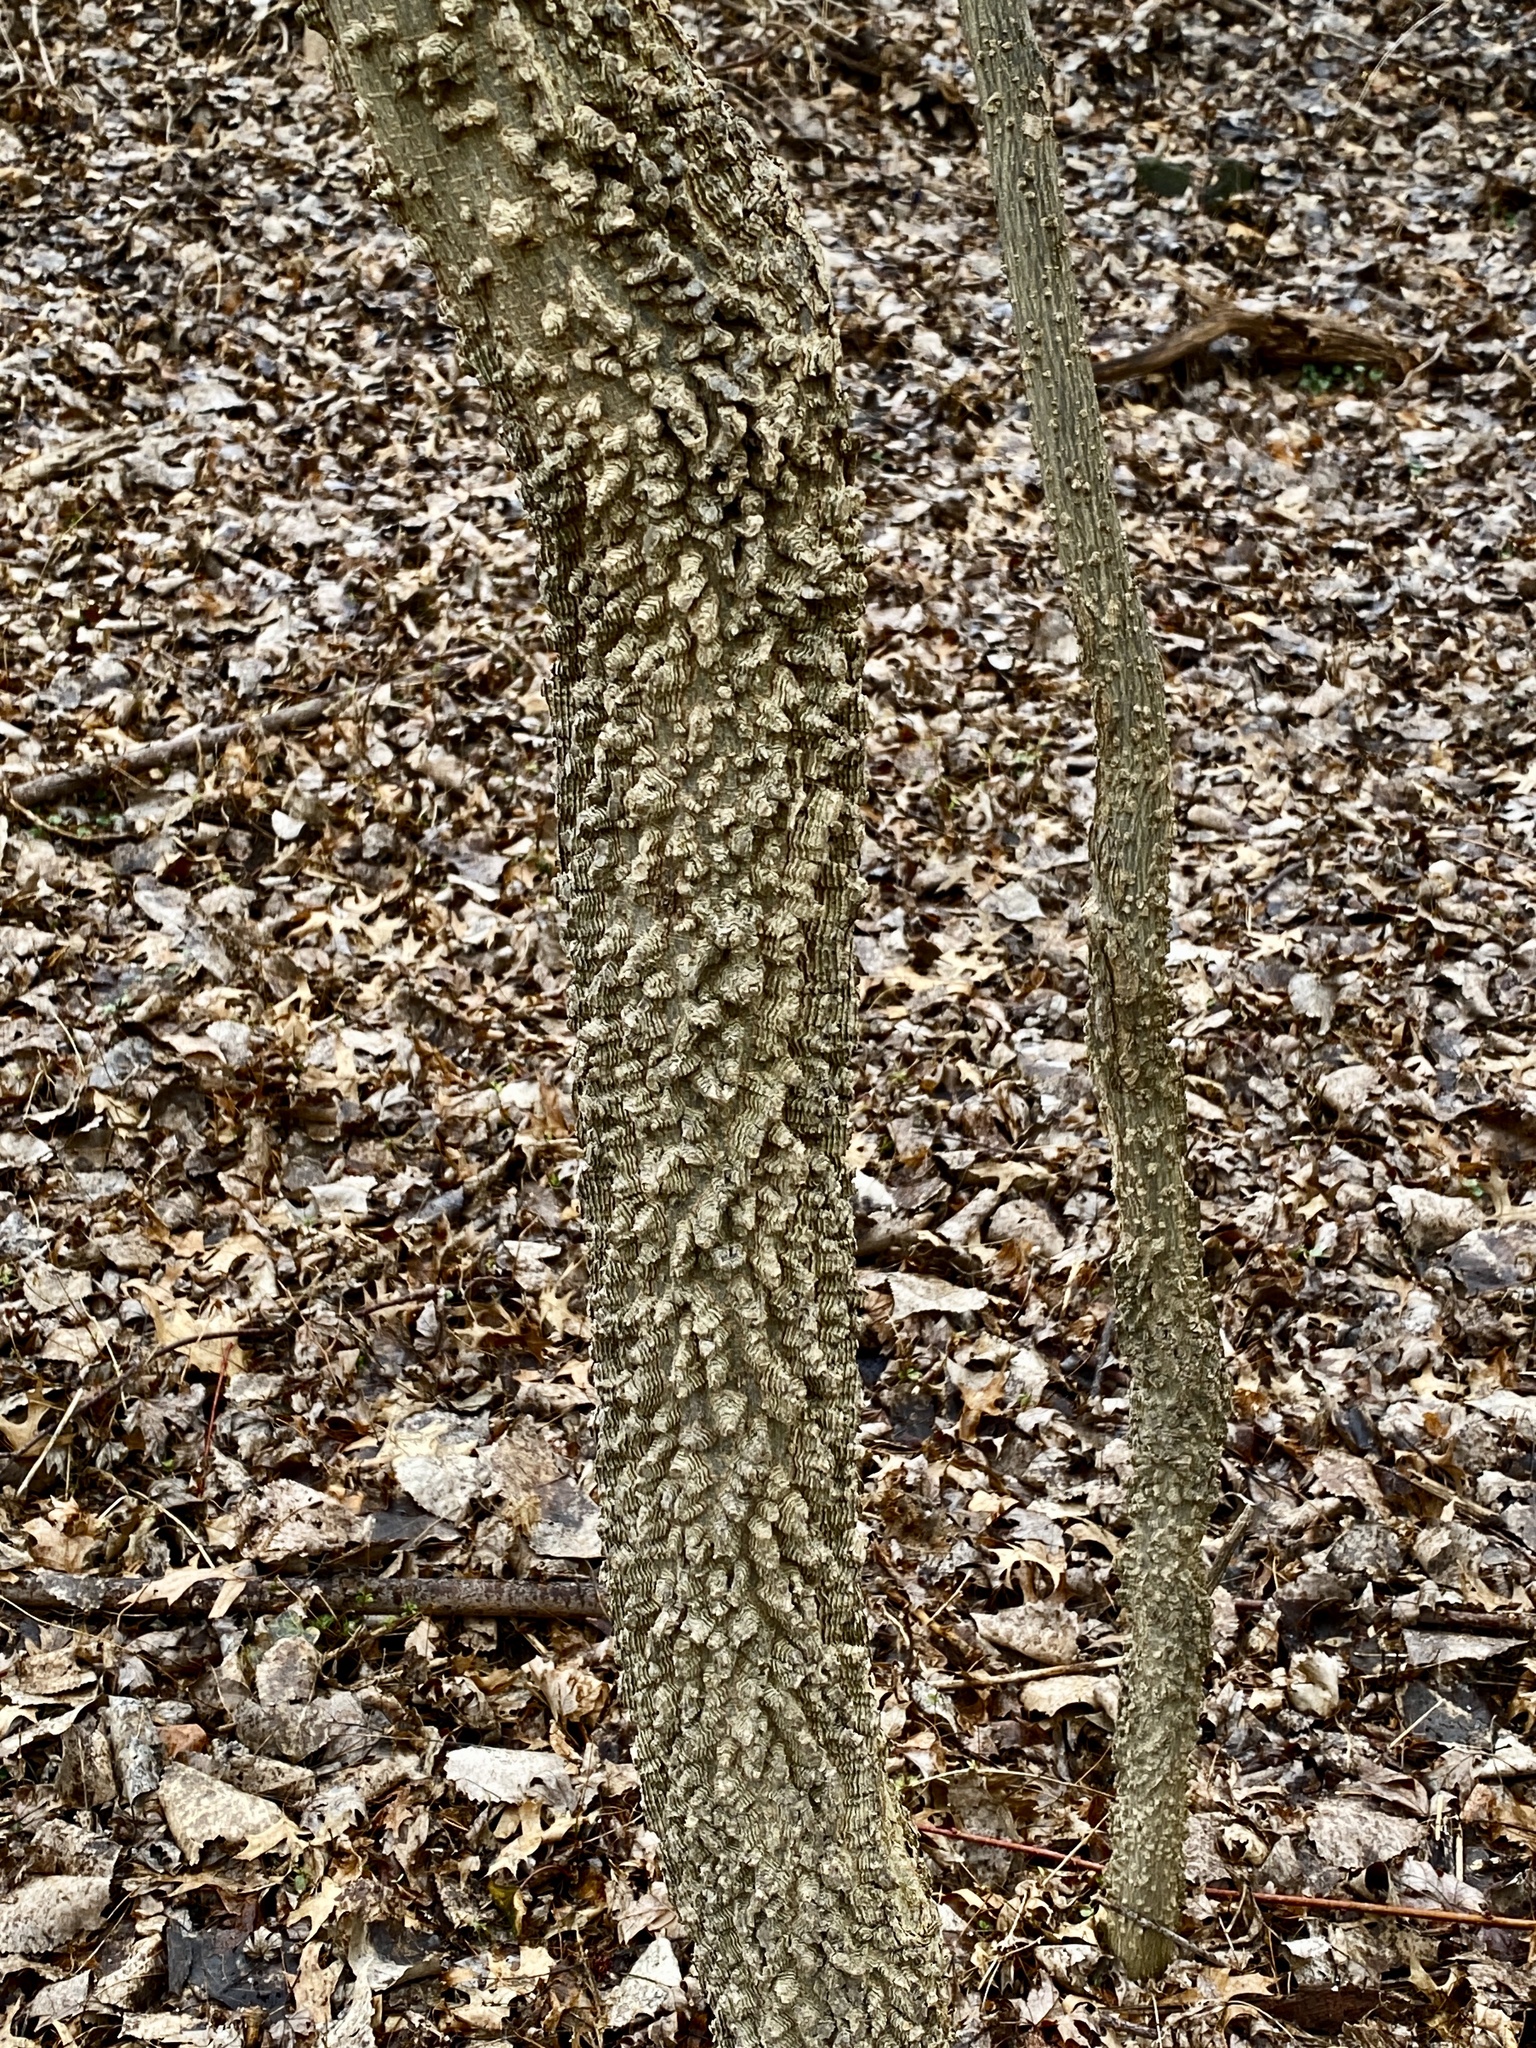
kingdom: Plantae
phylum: Tracheophyta
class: Magnoliopsida
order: Rosales
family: Cannabaceae
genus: Celtis
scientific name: Celtis occidentalis
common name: Common hackberry
